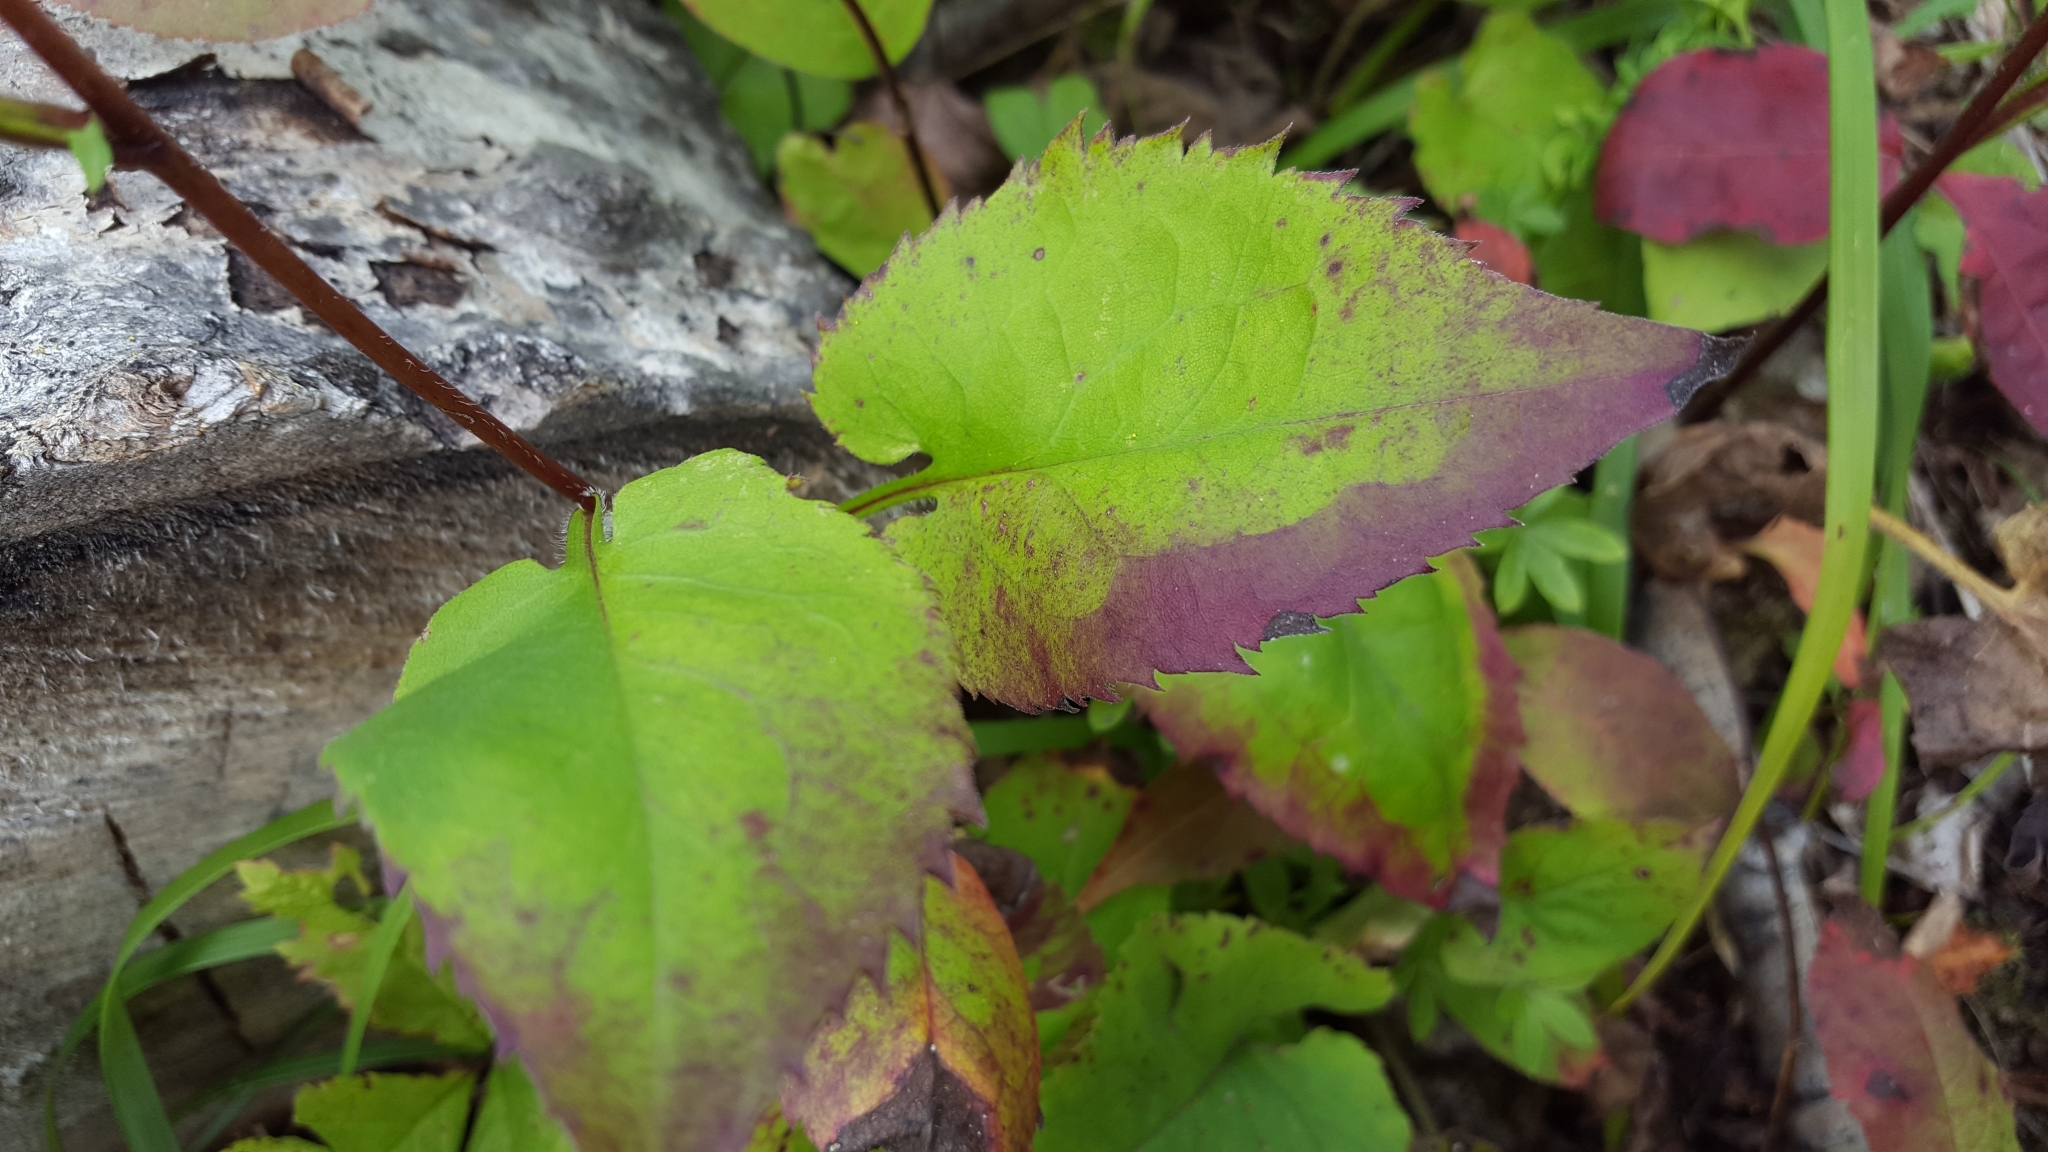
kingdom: Plantae
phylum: Tracheophyta
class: Magnoliopsida
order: Asterales
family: Asteraceae
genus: Eurybia
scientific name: Eurybia macrophylla
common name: Big-leaved aster
